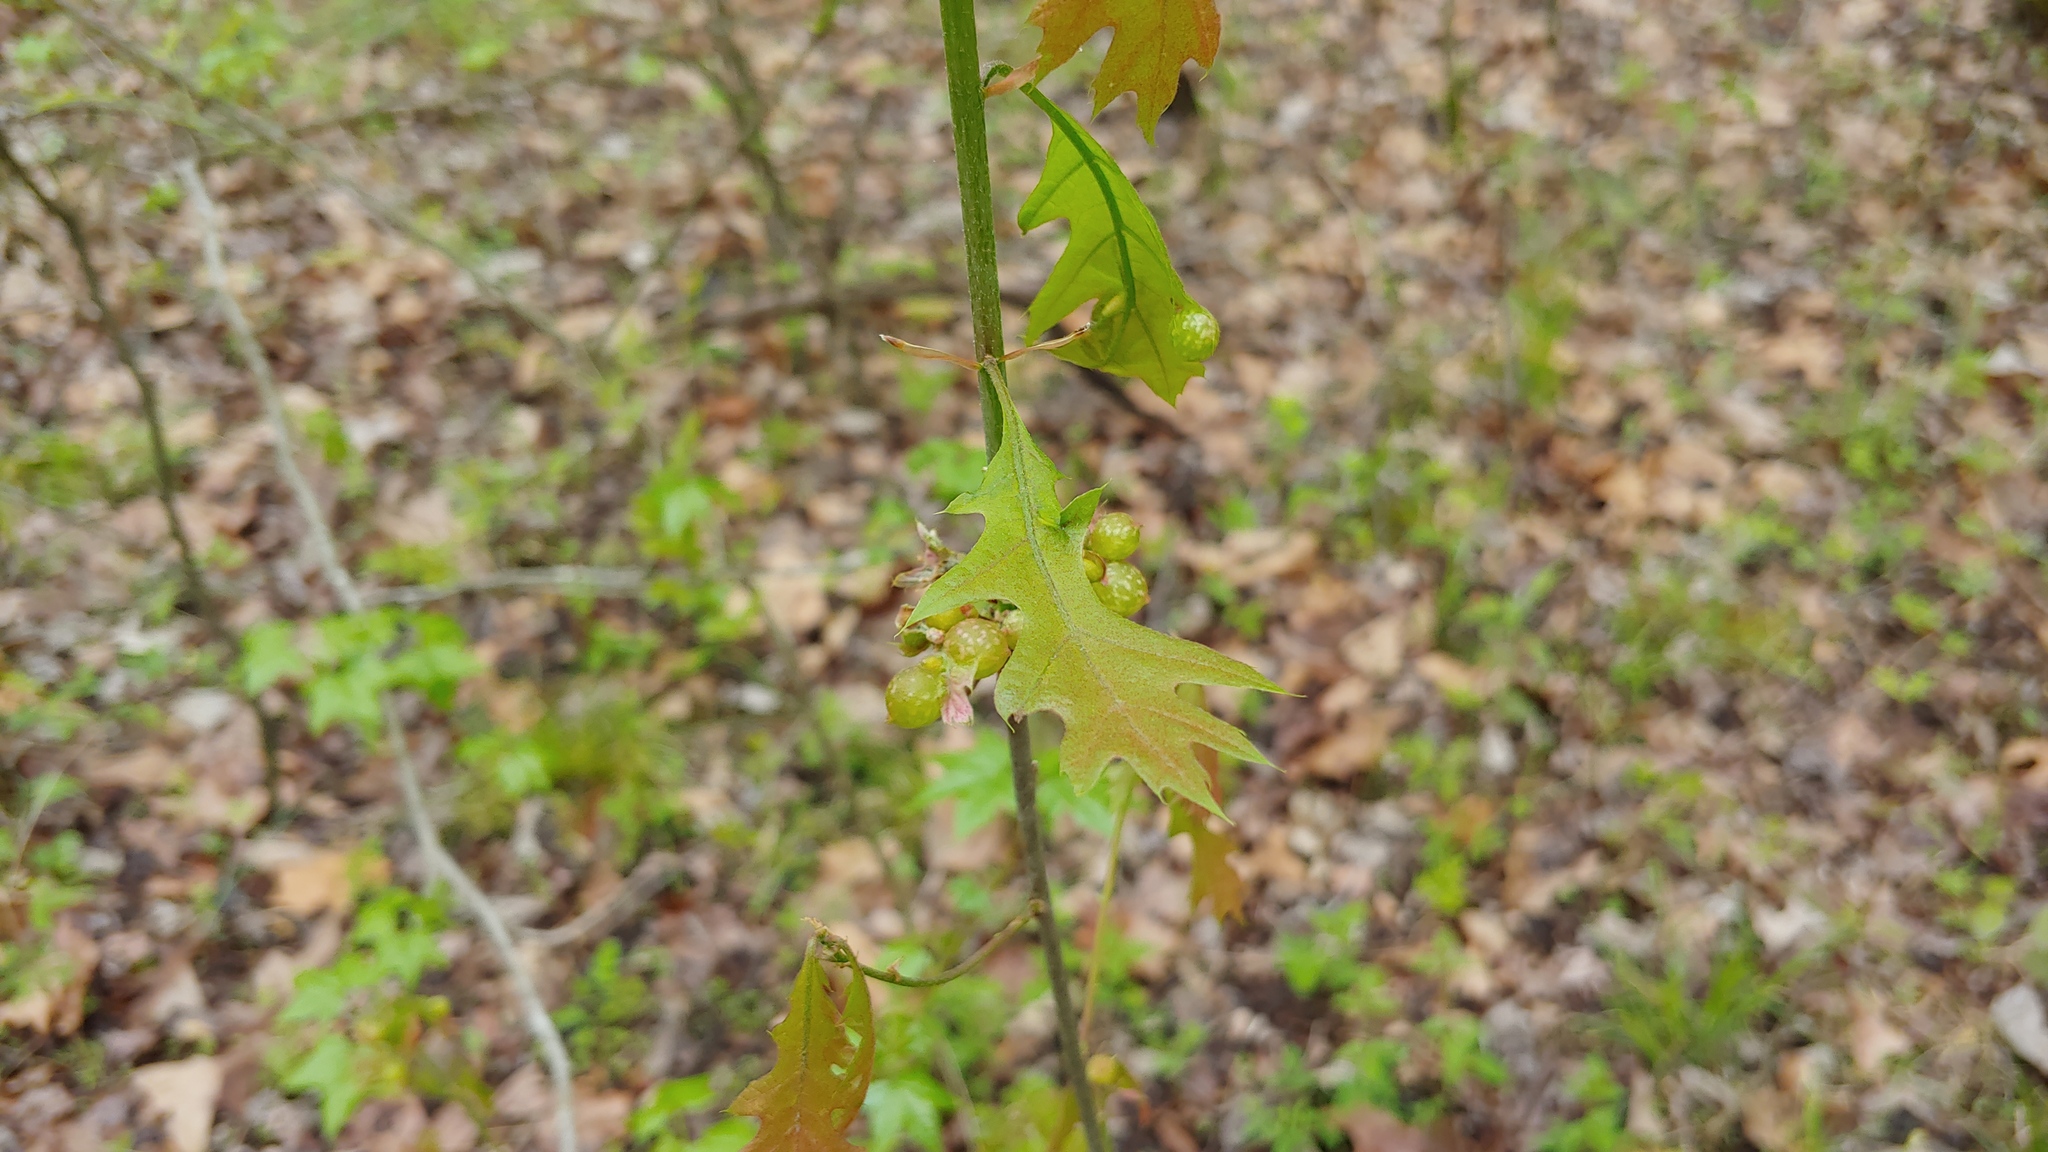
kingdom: Animalia
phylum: Arthropoda
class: Insecta
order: Hymenoptera
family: Cynipidae
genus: Dryocosmus
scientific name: Dryocosmus quercuspalustris
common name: Succulent oak gall wasp
